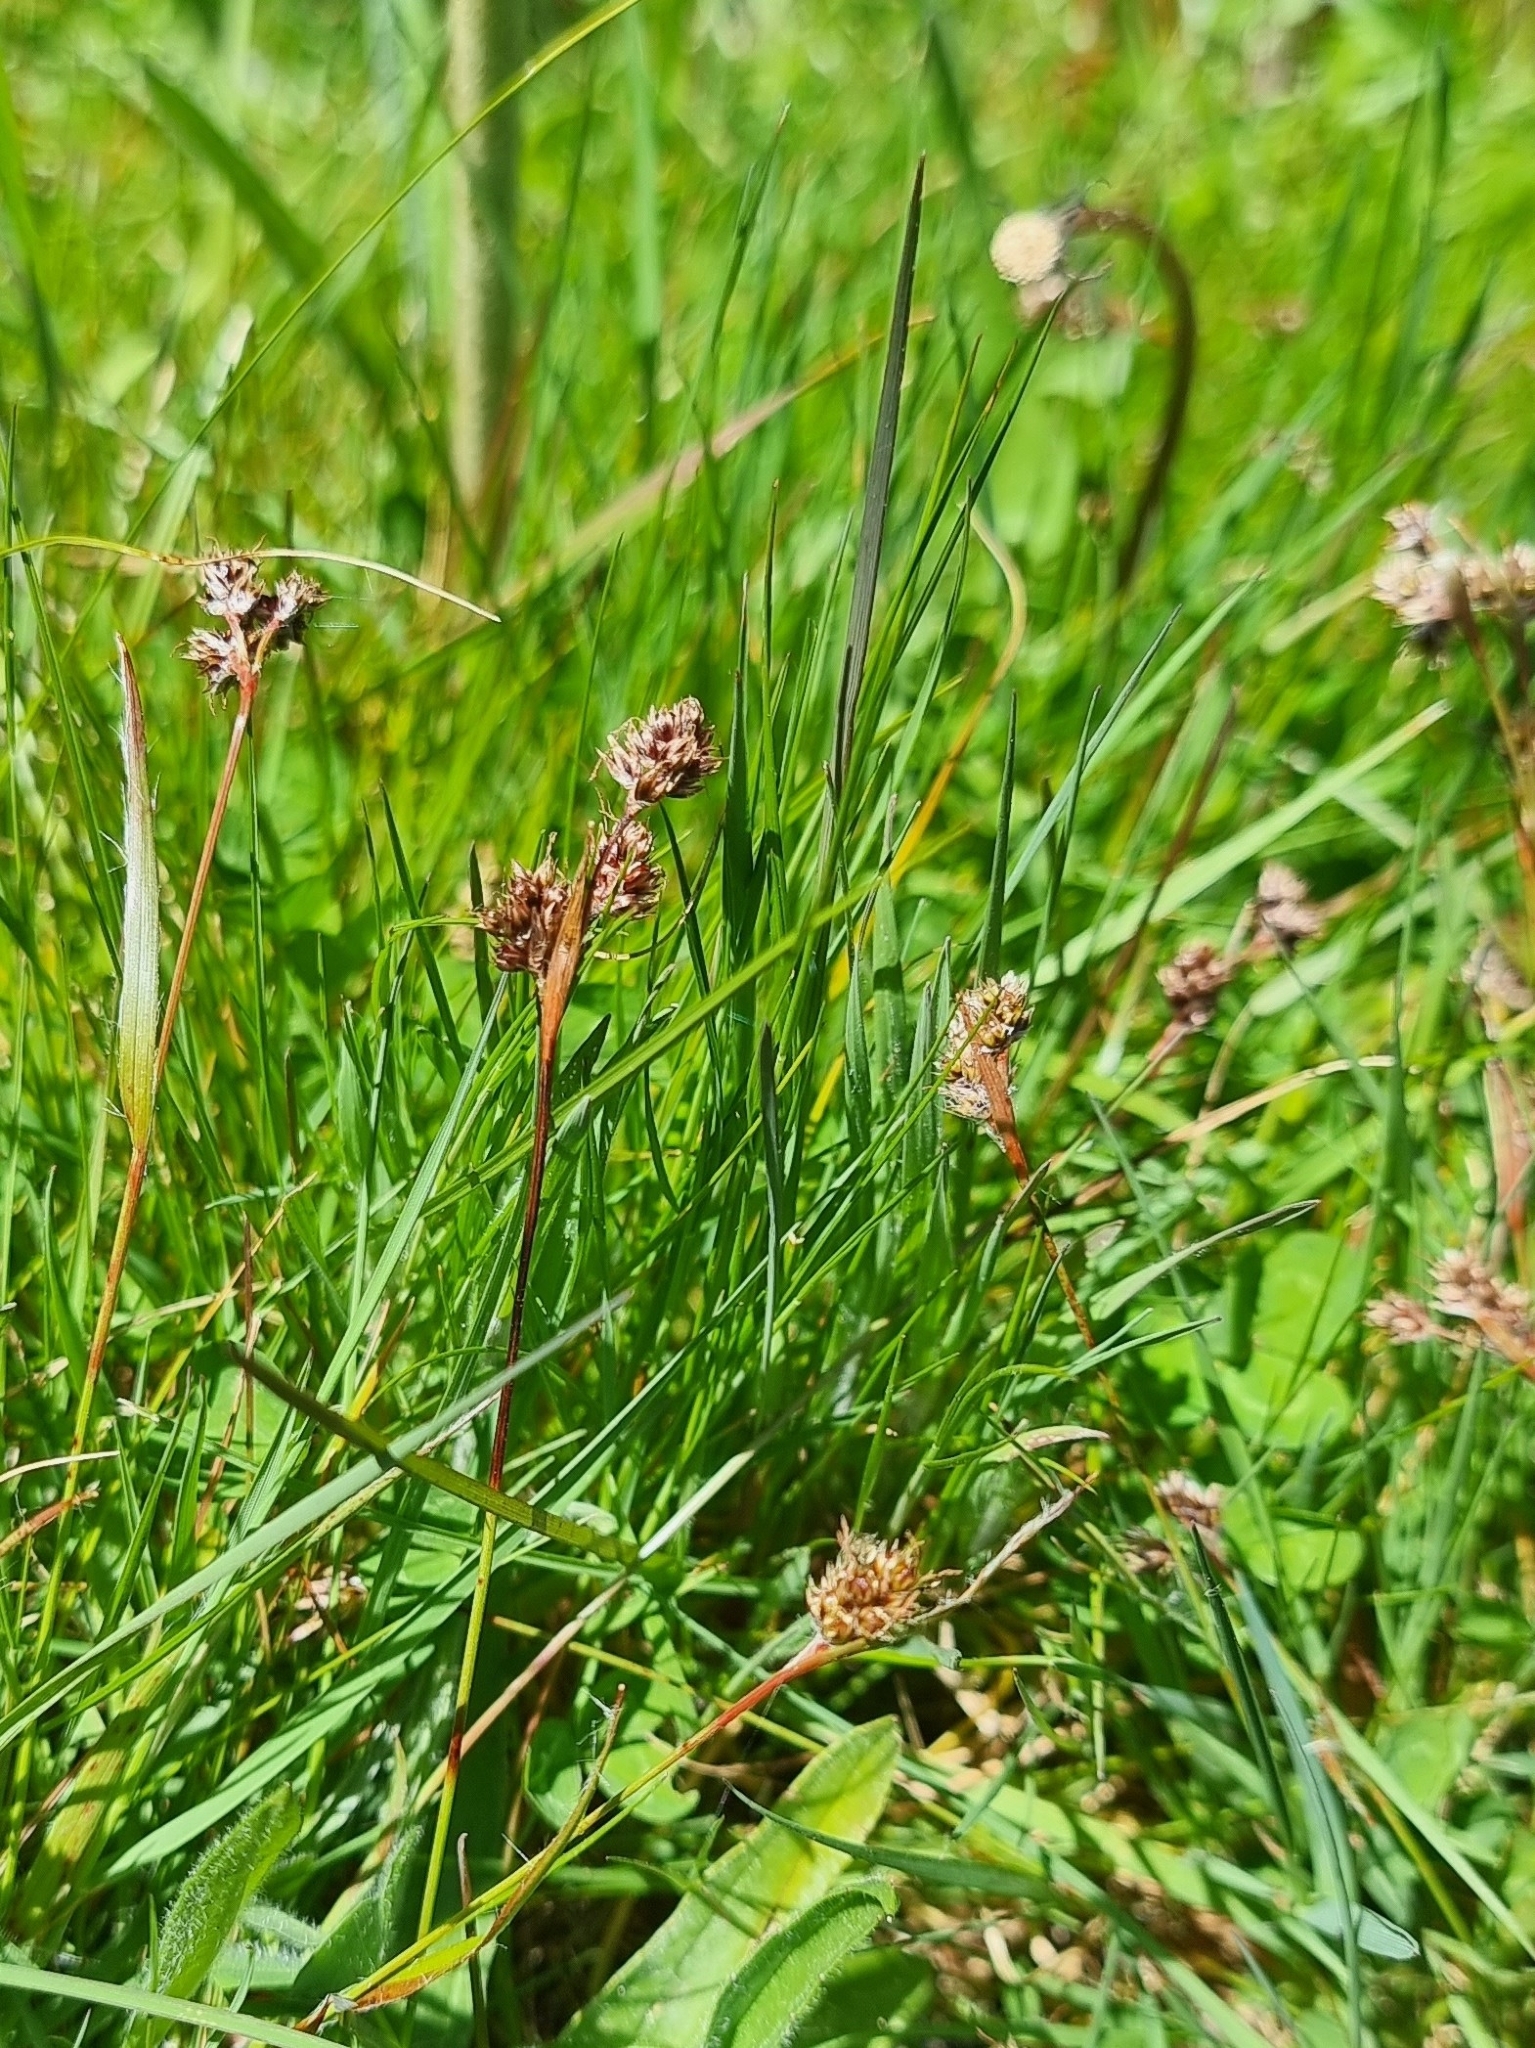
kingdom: Plantae
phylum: Tracheophyta
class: Liliopsida
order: Poales
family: Juncaceae
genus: Luzula
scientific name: Luzula campestris
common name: Field wood-rush
